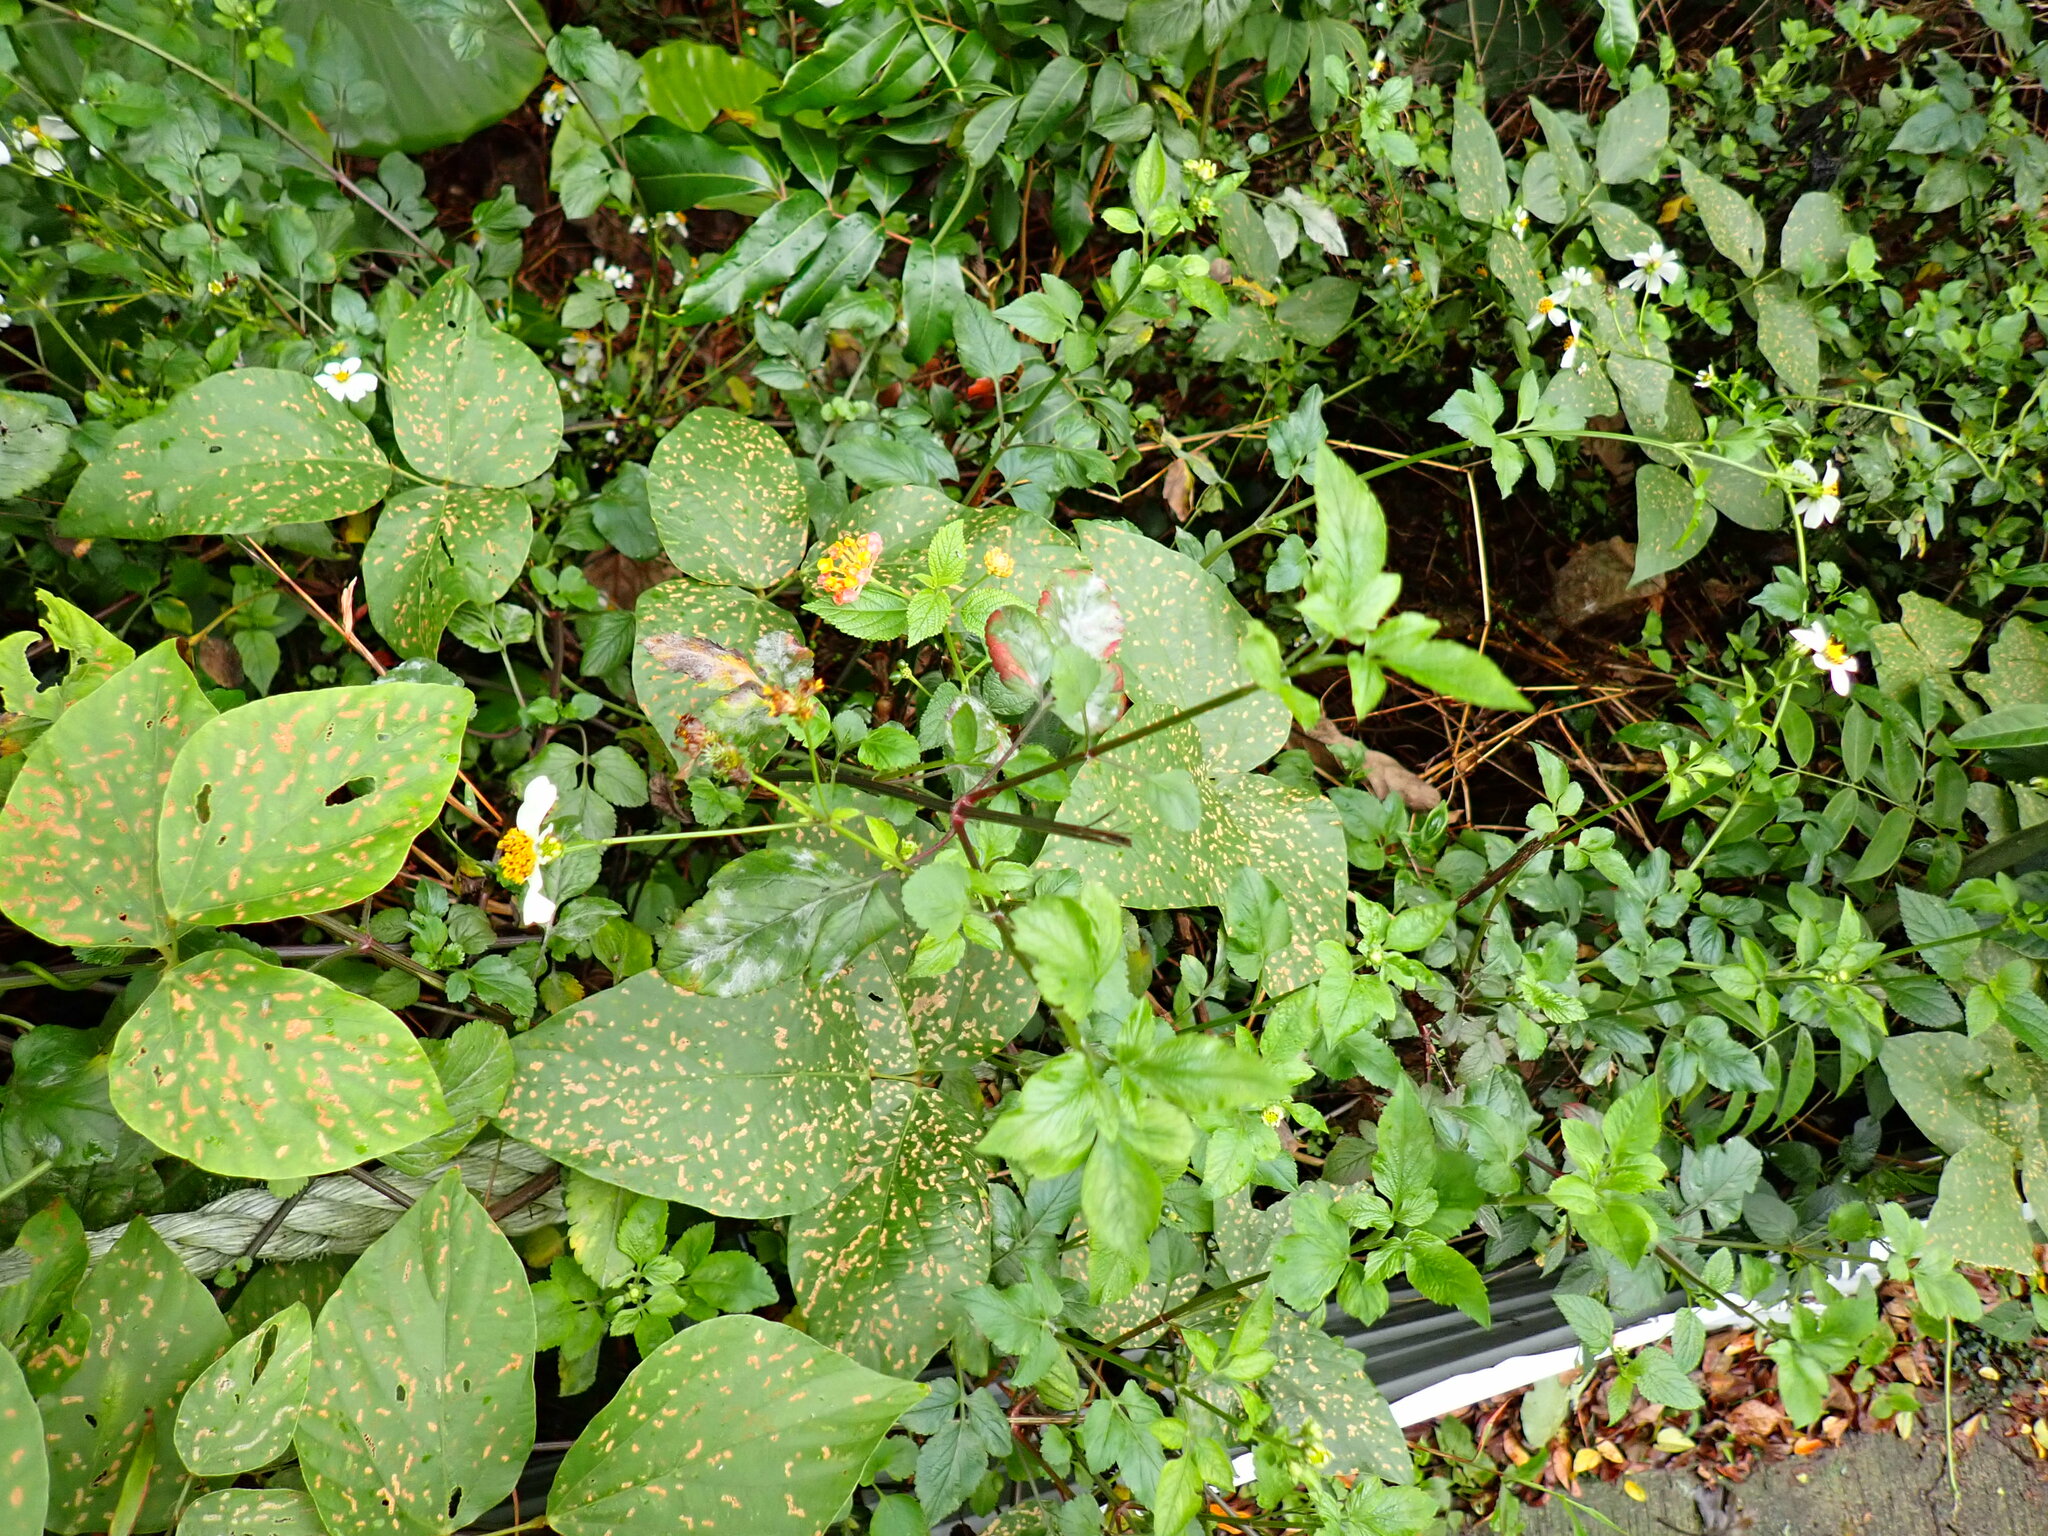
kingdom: Plantae
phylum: Tracheophyta
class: Magnoliopsida
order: Lamiales
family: Verbenaceae
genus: Lantana
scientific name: Lantana camara
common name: Lantana
